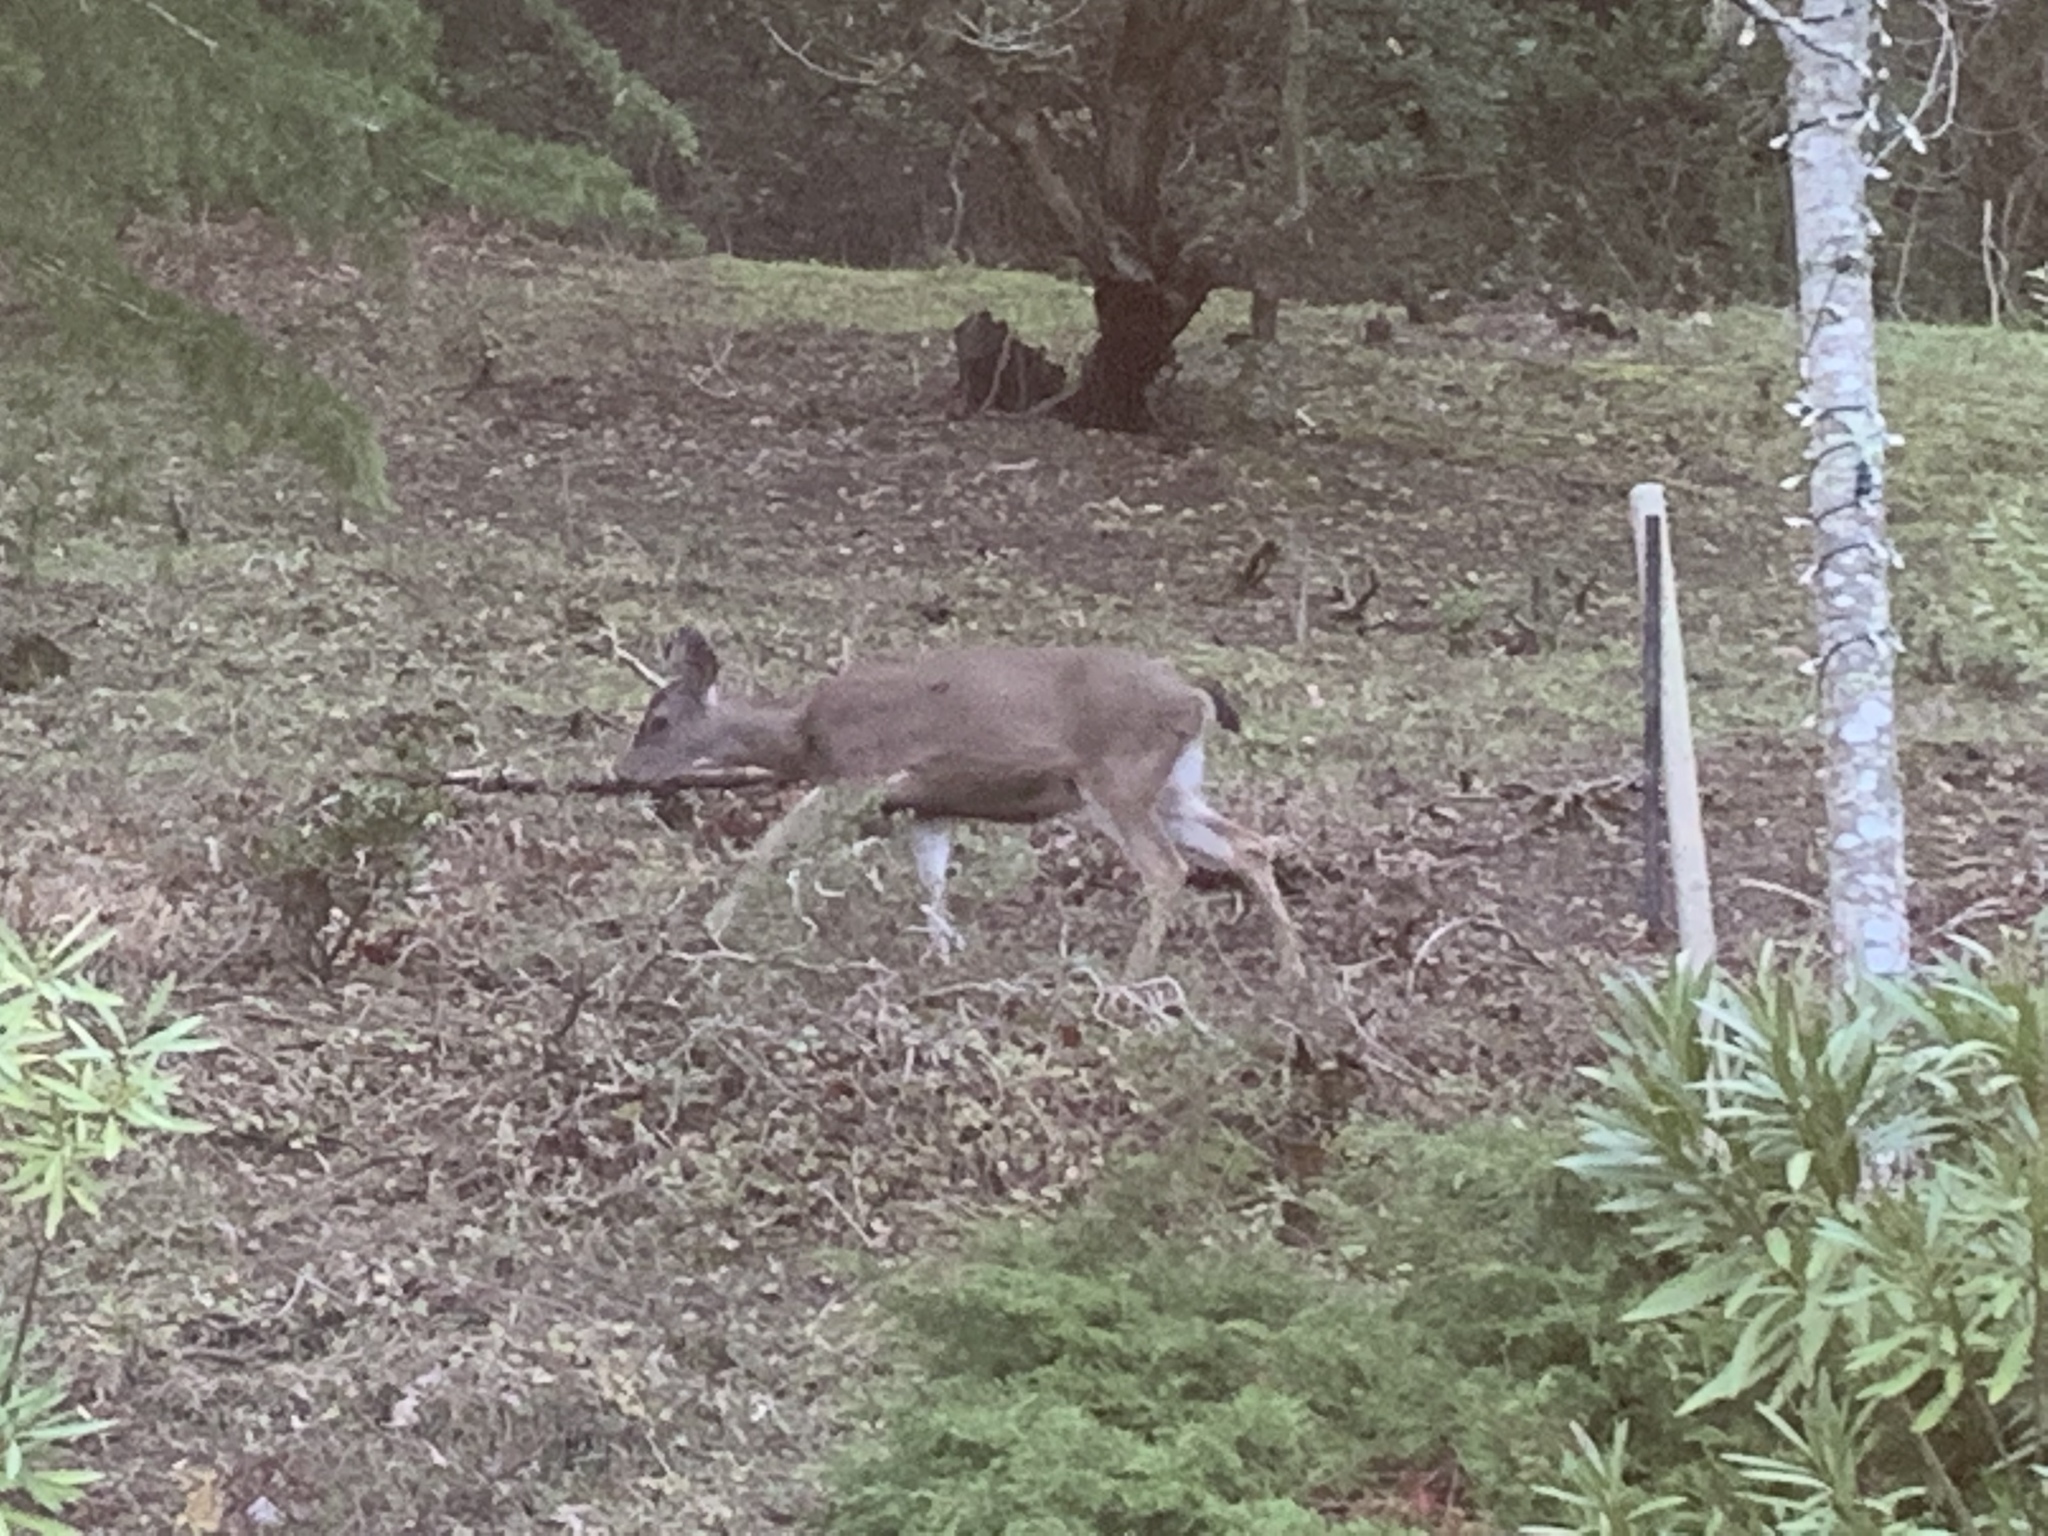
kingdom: Animalia
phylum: Chordata
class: Mammalia
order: Artiodactyla
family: Cervidae
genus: Odocoileus
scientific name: Odocoileus hemionus
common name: Mule deer
